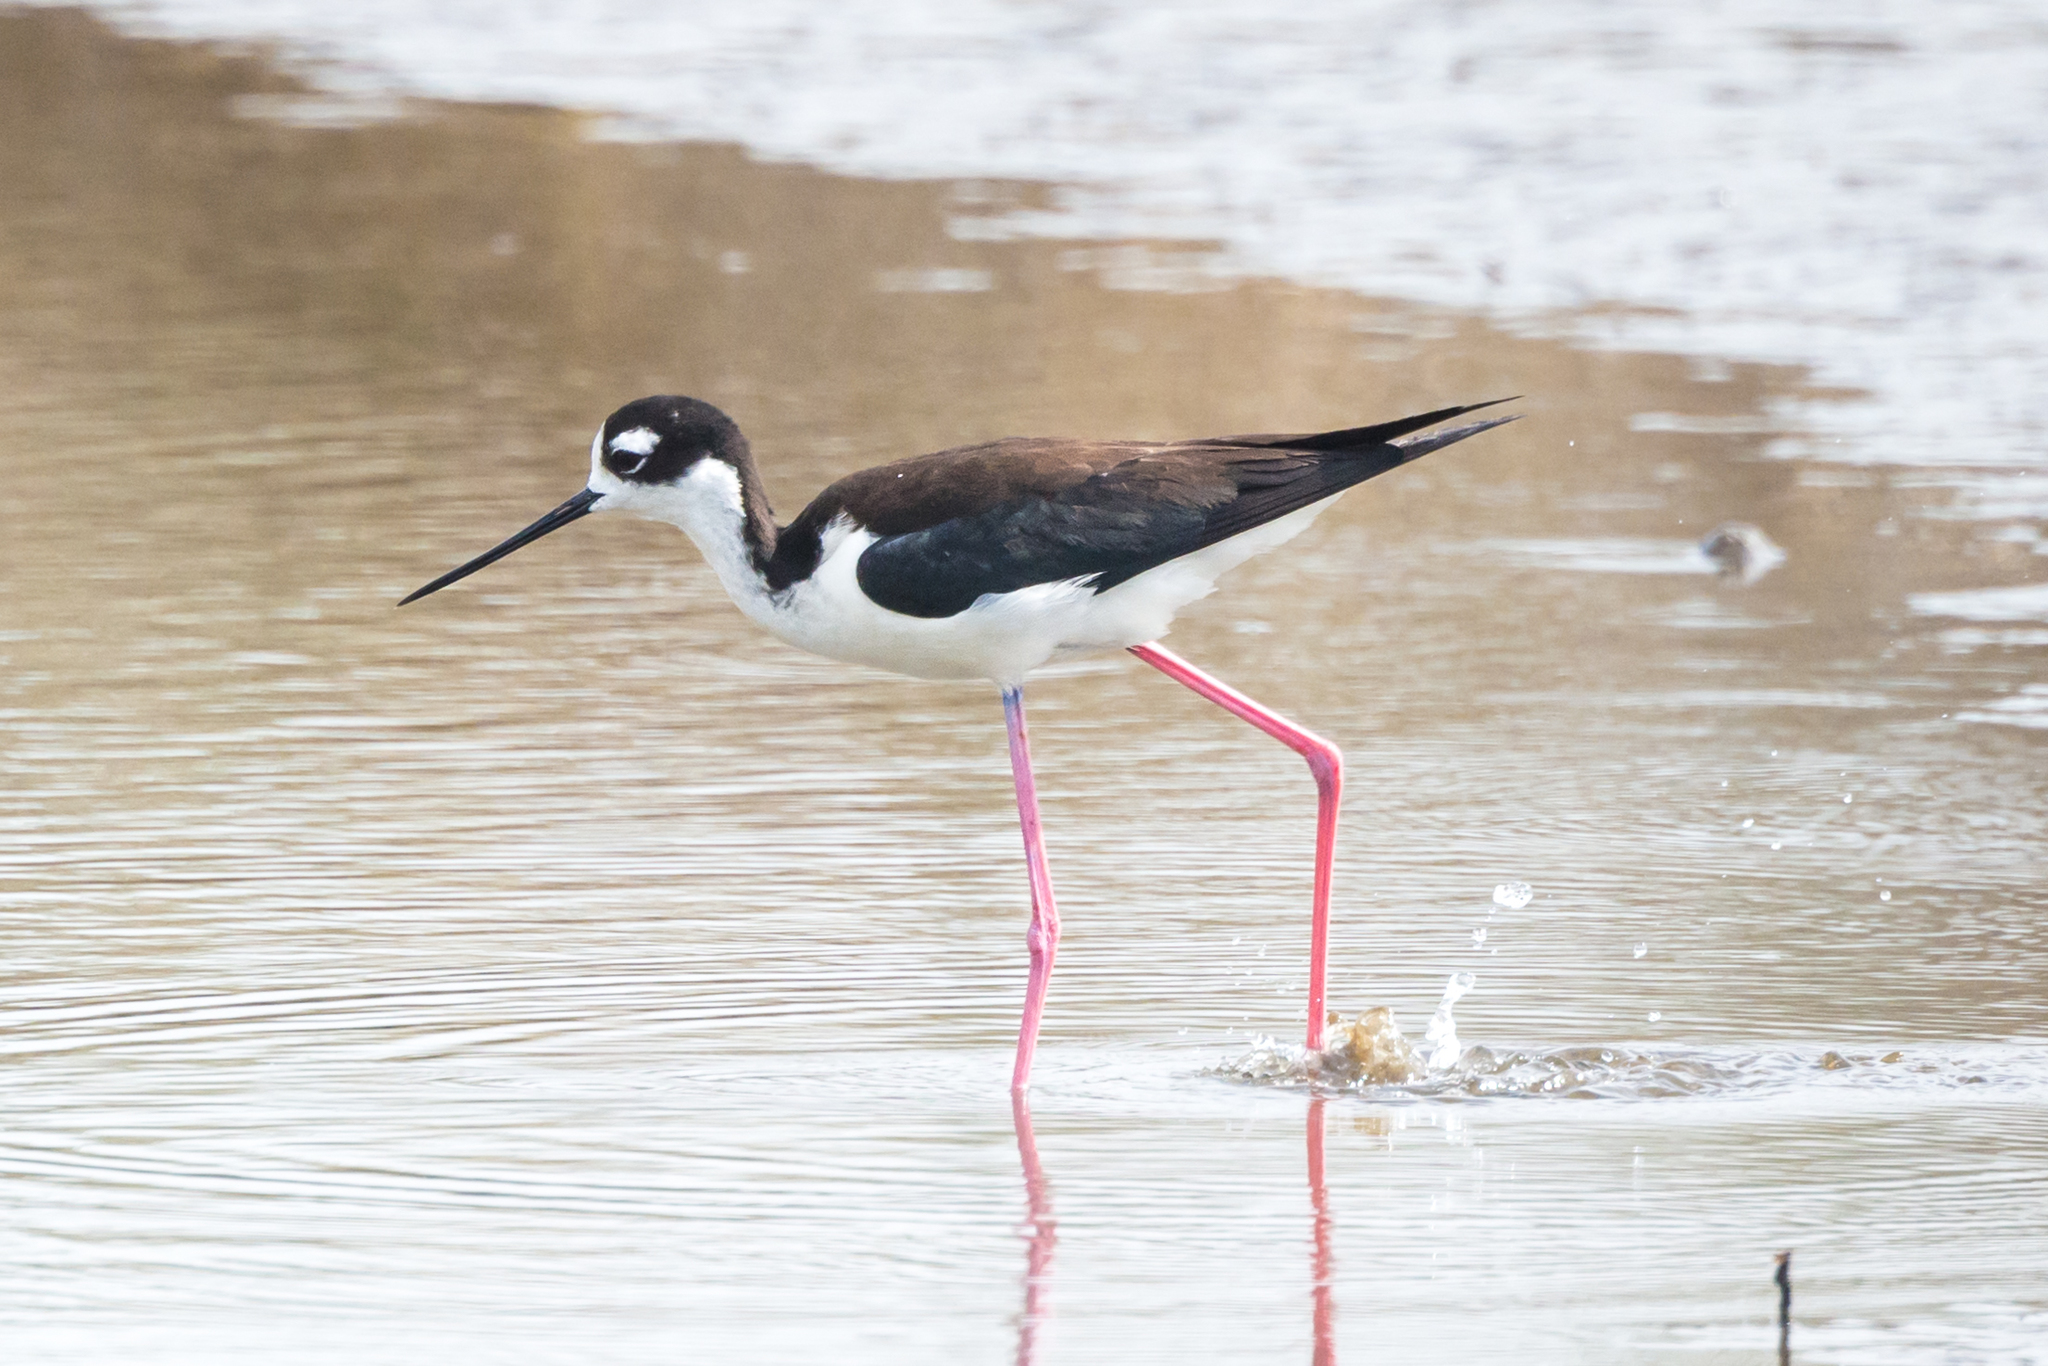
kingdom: Animalia
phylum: Chordata
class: Aves
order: Charadriiformes
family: Recurvirostridae
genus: Himantopus
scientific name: Himantopus mexicanus
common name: Black-necked stilt
